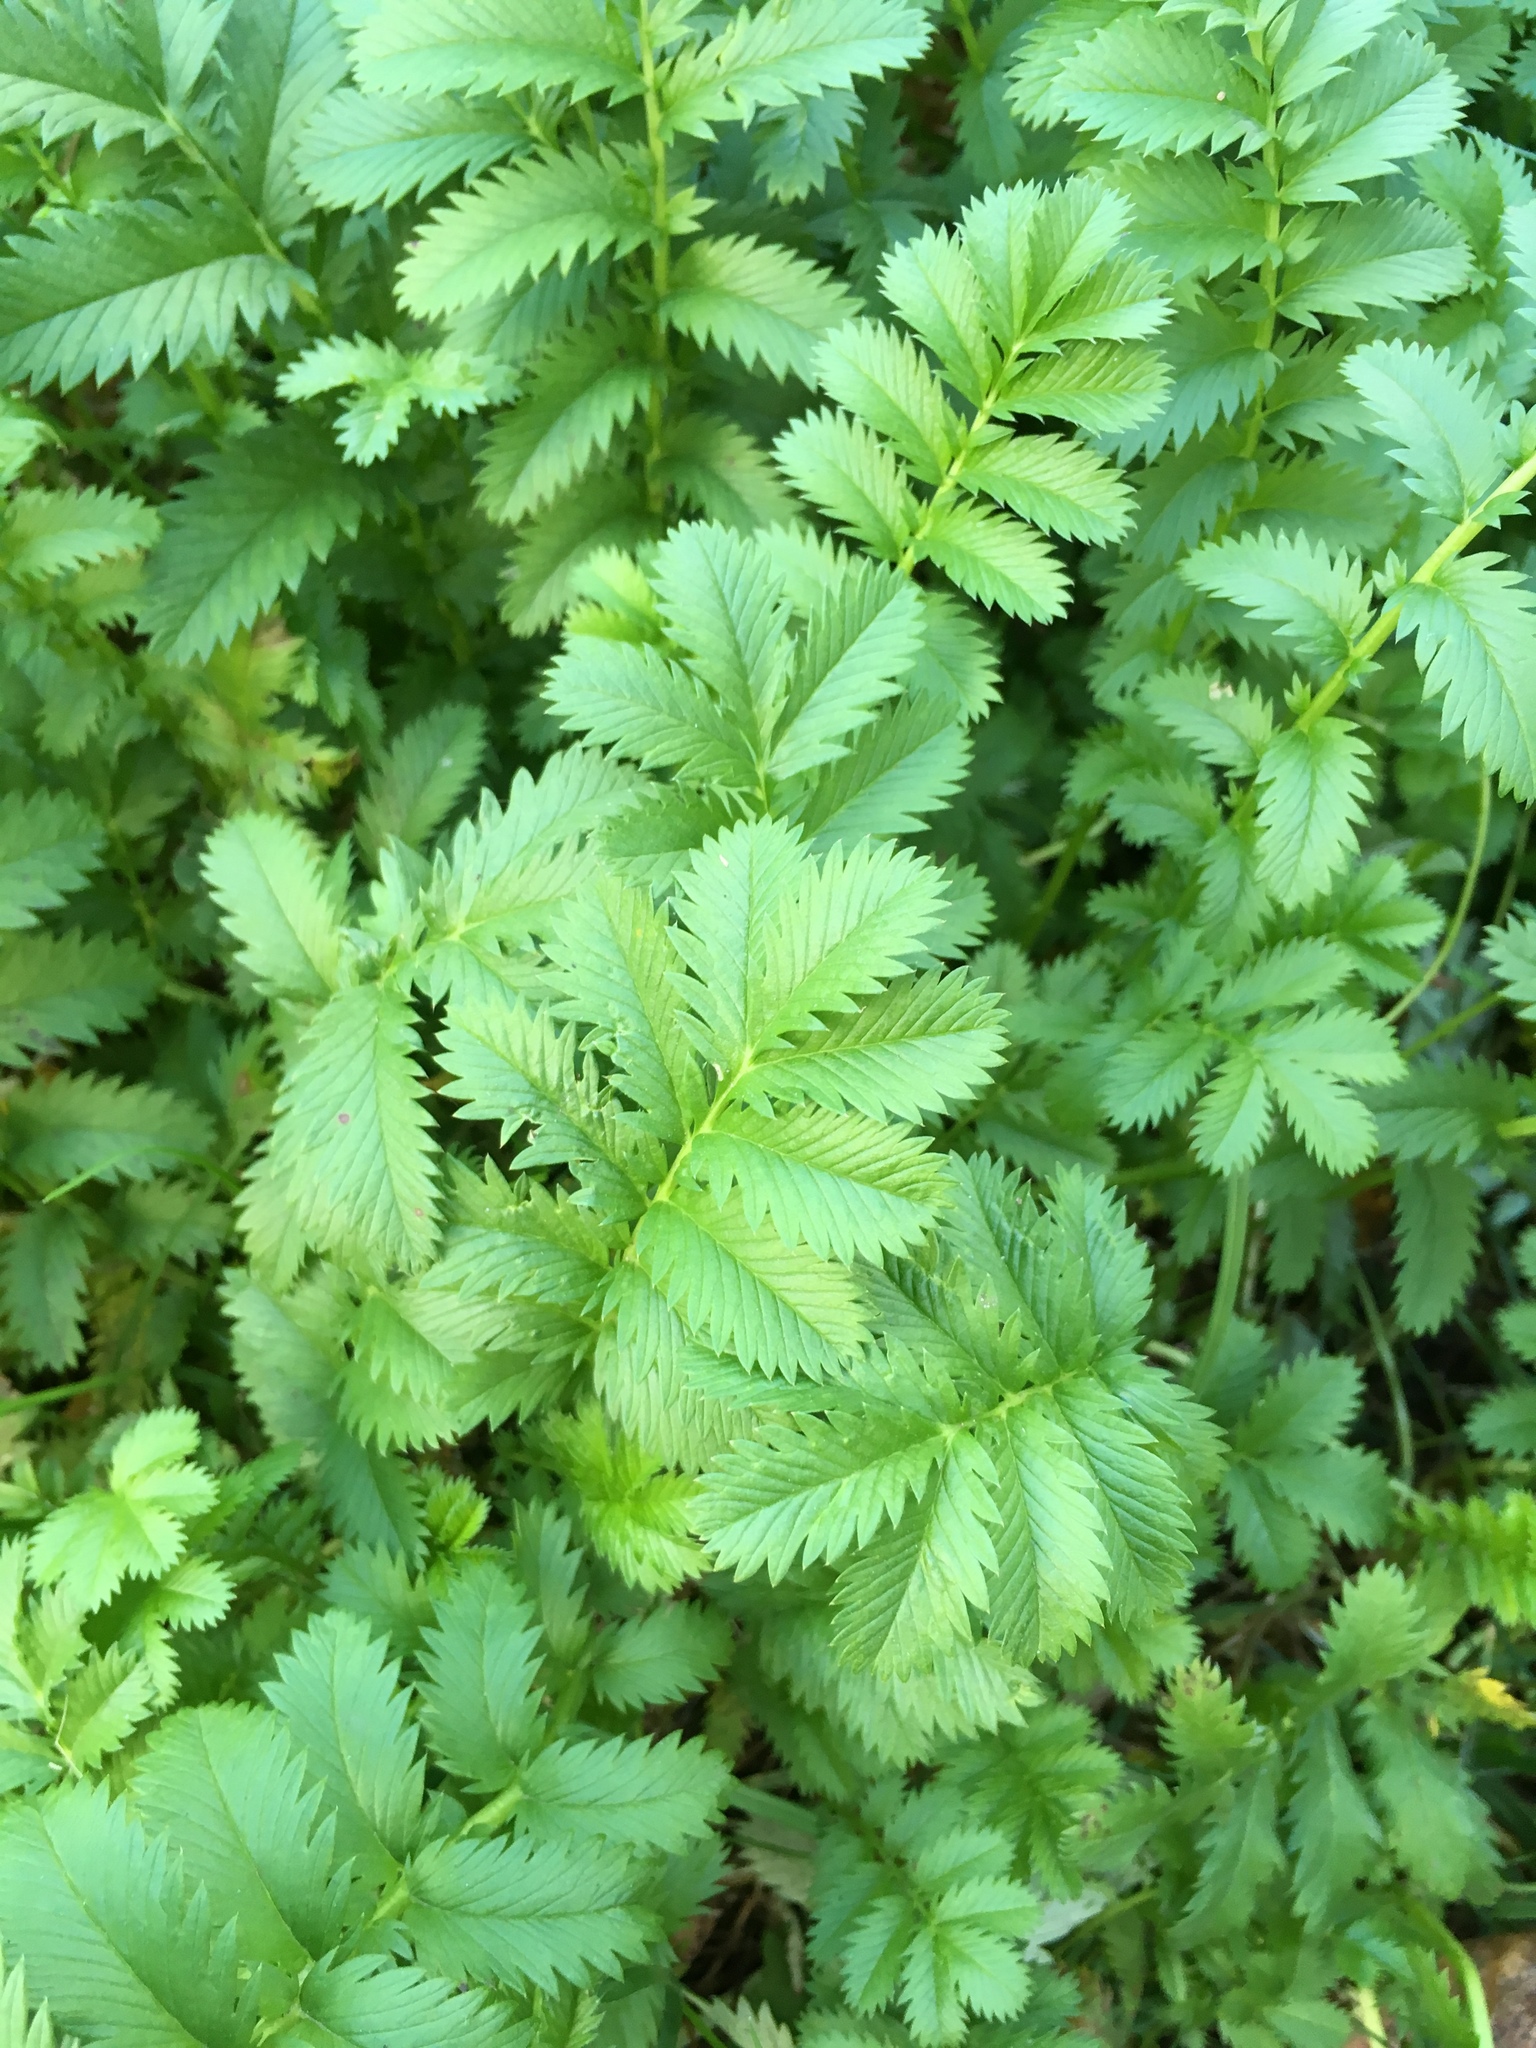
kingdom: Plantae
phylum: Tracheophyta
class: Magnoliopsida
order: Rosales
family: Rosaceae
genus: Argentina
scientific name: Argentina anserina
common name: Common silverweed
